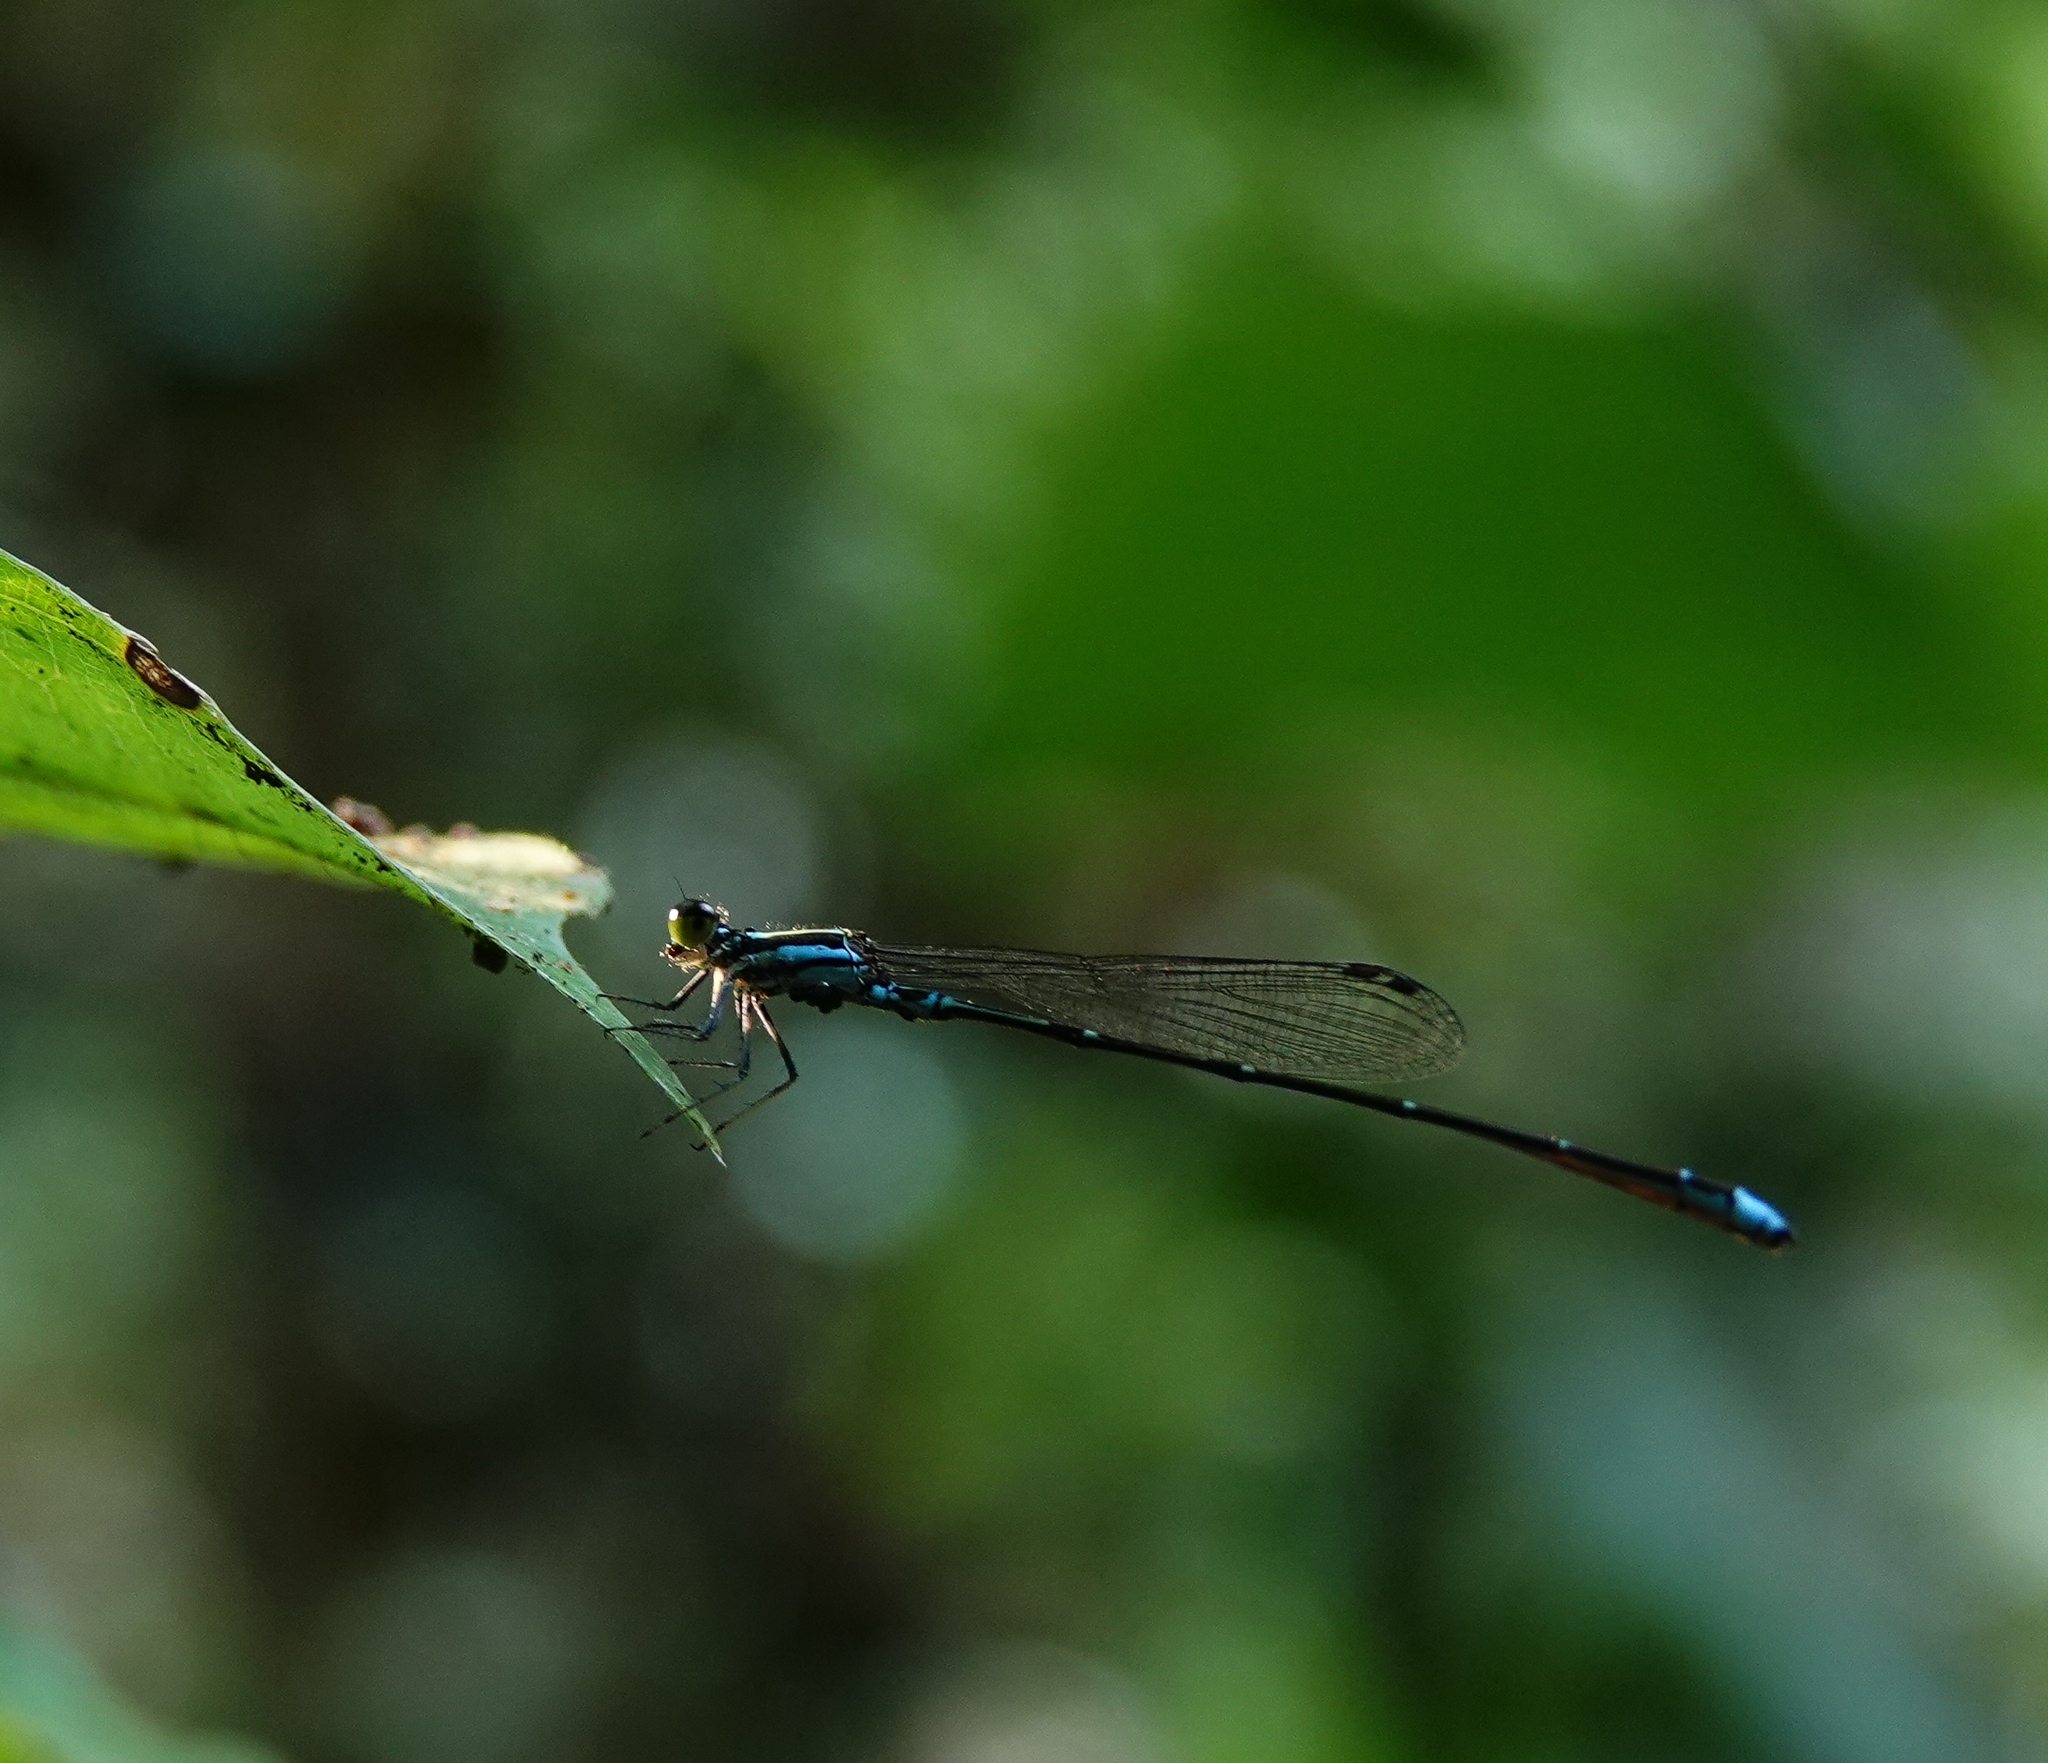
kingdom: Animalia
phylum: Arthropoda
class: Insecta
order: Odonata
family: Coenagrionidae
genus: Mortonagrion
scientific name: Mortonagrion aborense
